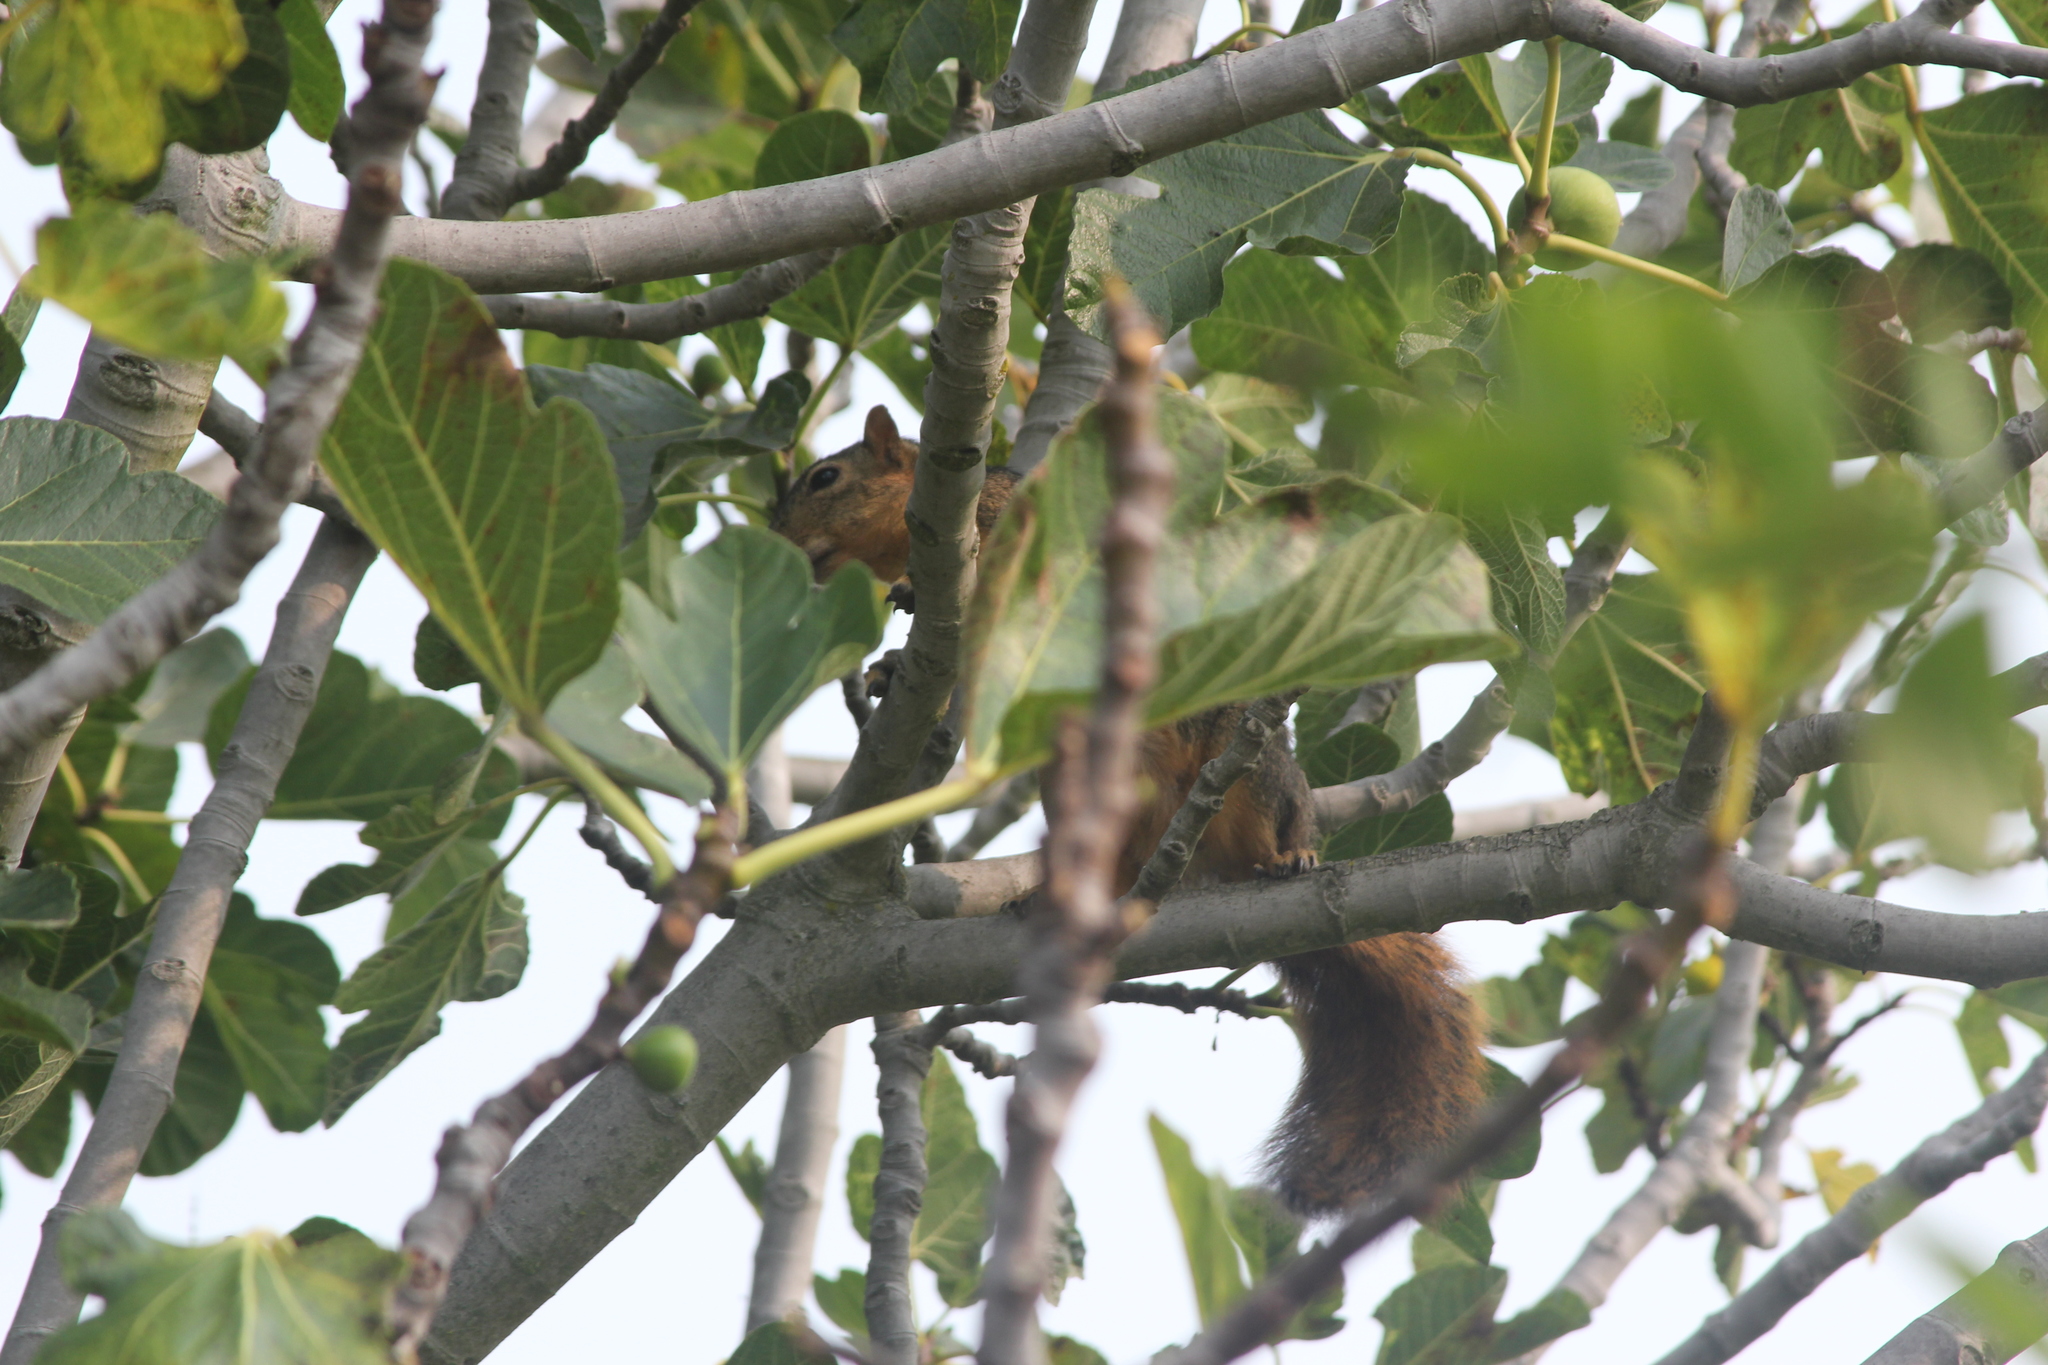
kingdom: Animalia
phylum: Chordata
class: Mammalia
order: Rodentia
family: Sciuridae
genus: Sciurus
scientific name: Sciurus niger
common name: Fox squirrel
